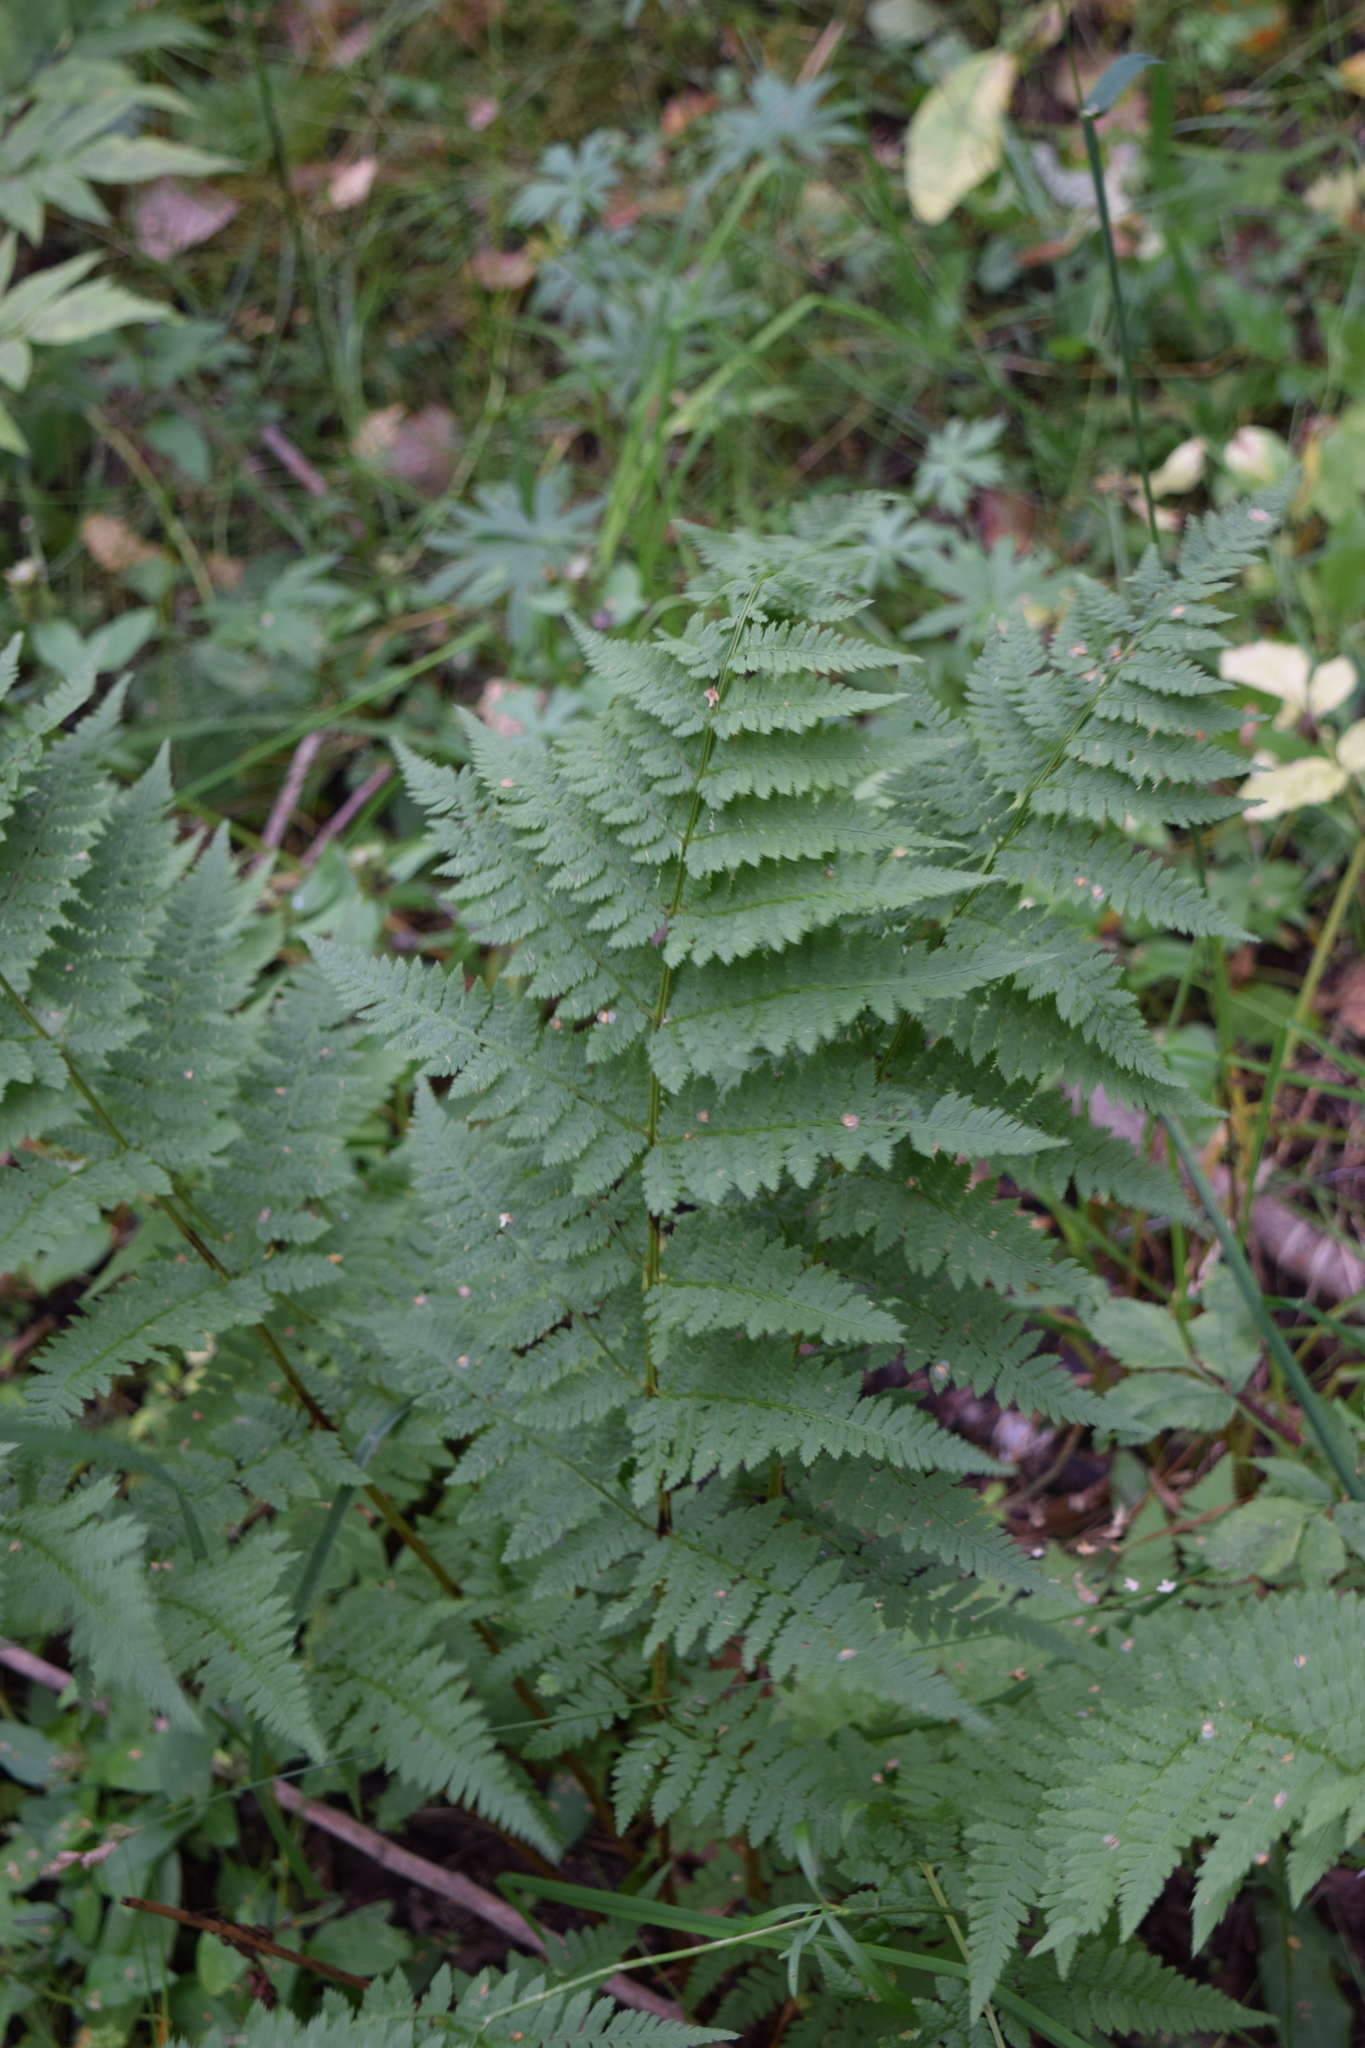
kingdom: Plantae
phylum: Tracheophyta
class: Polypodiopsida
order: Polypodiales
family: Dryopteridaceae
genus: Dryopteris
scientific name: Dryopteris carthusiana
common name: Narrow buckler-fern
